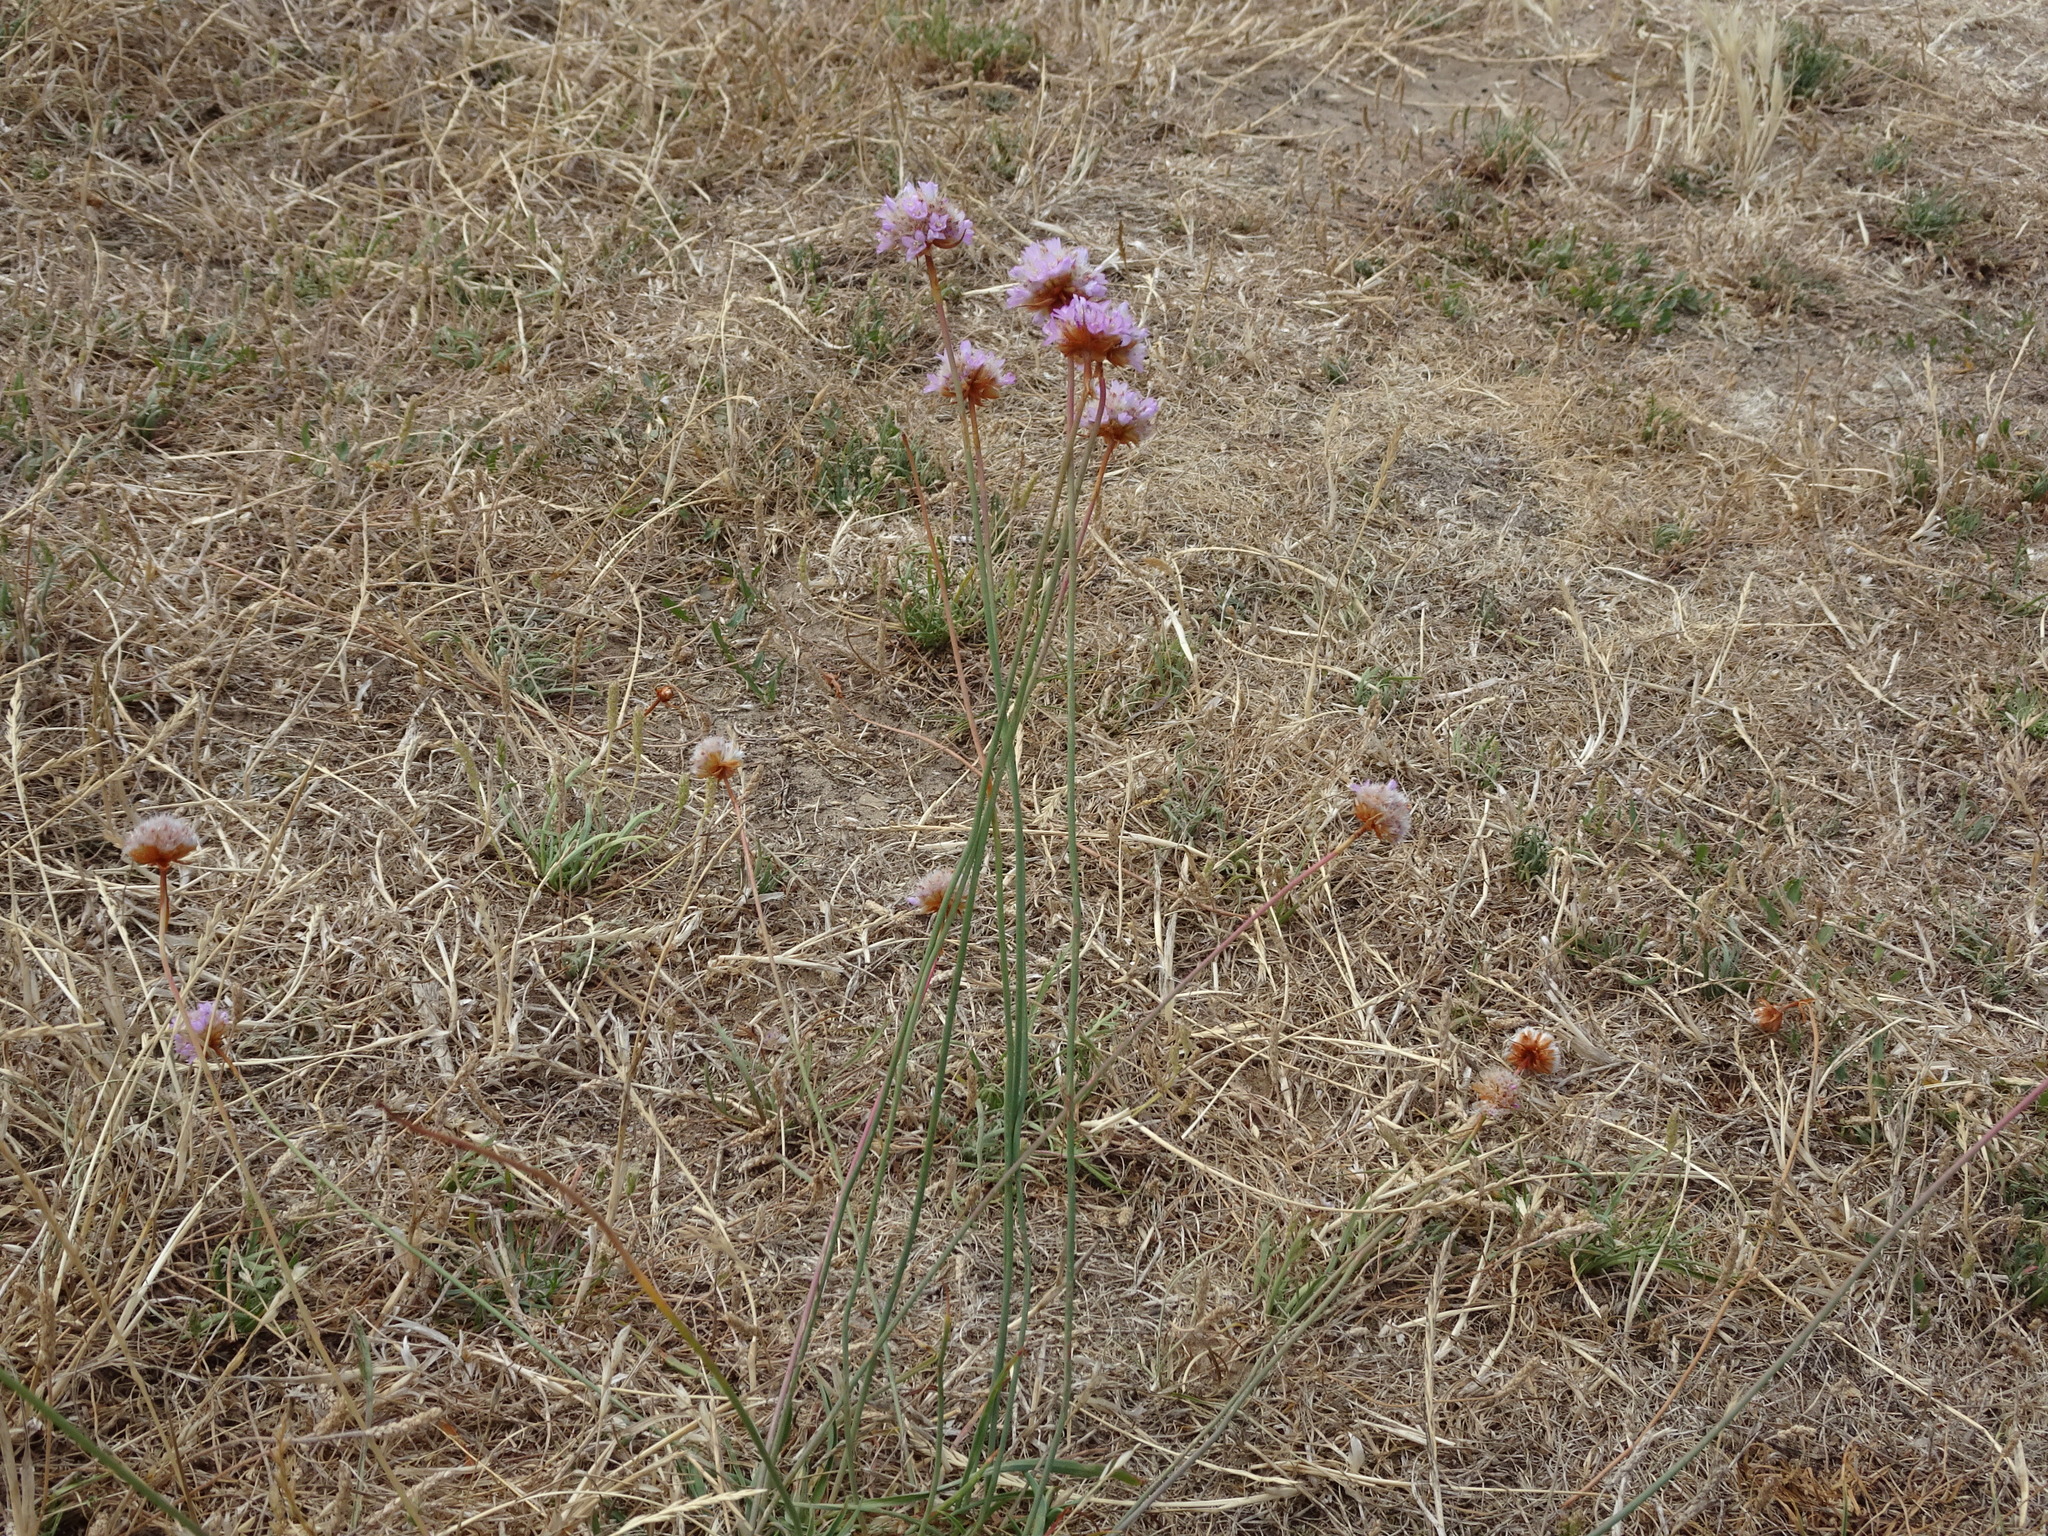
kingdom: Plantae
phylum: Tracheophyta
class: Magnoliopsida
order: Caryophyllales
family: Plumbaginaceae
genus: Armeria
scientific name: Armeria maritima
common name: Thrift
